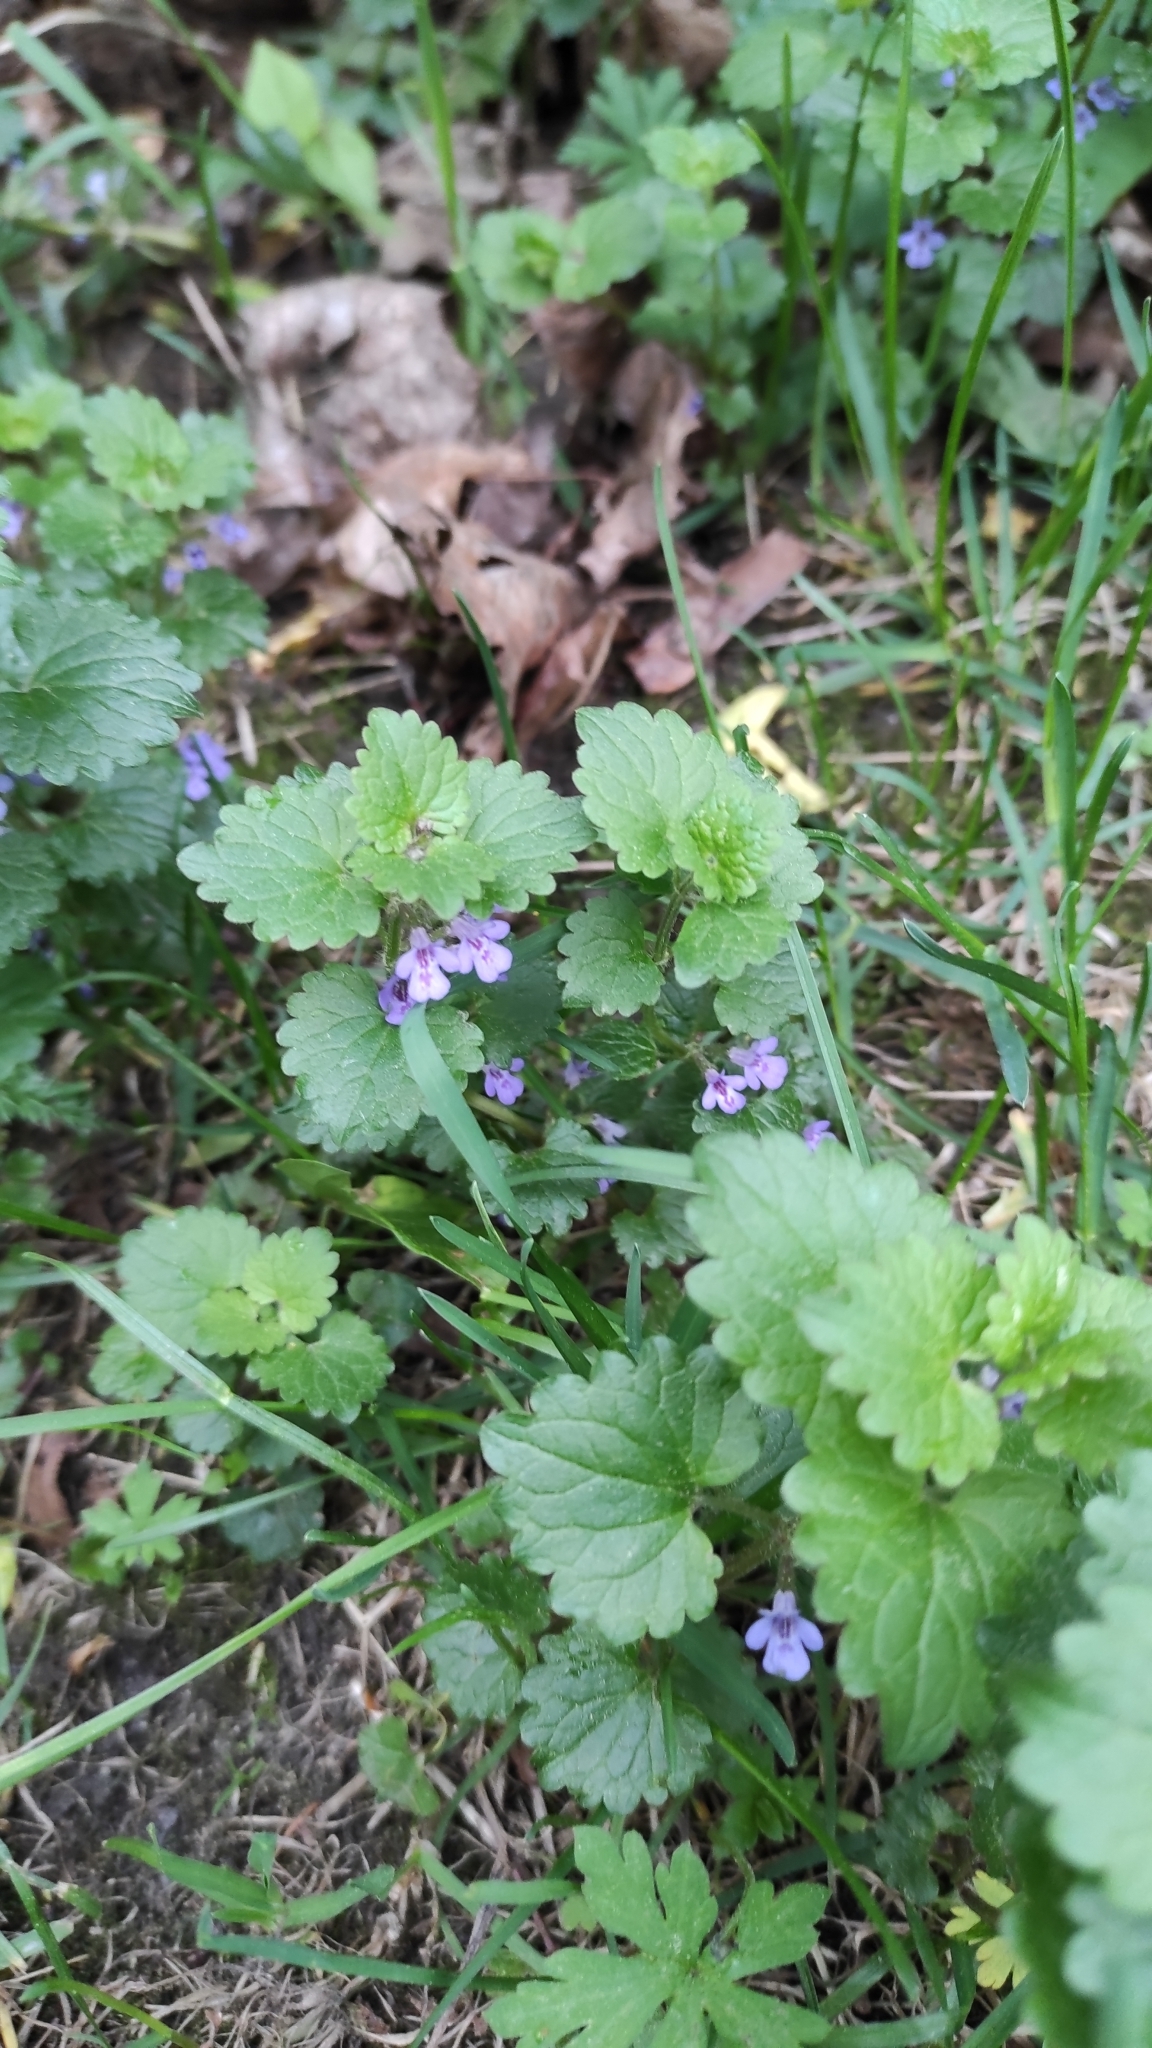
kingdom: Plantae
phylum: Tracheophyta
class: Magnoliopsida
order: Lamiales
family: Lamiaceae
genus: Glechoma
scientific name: Glechoma hederacea
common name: Ground ivy
